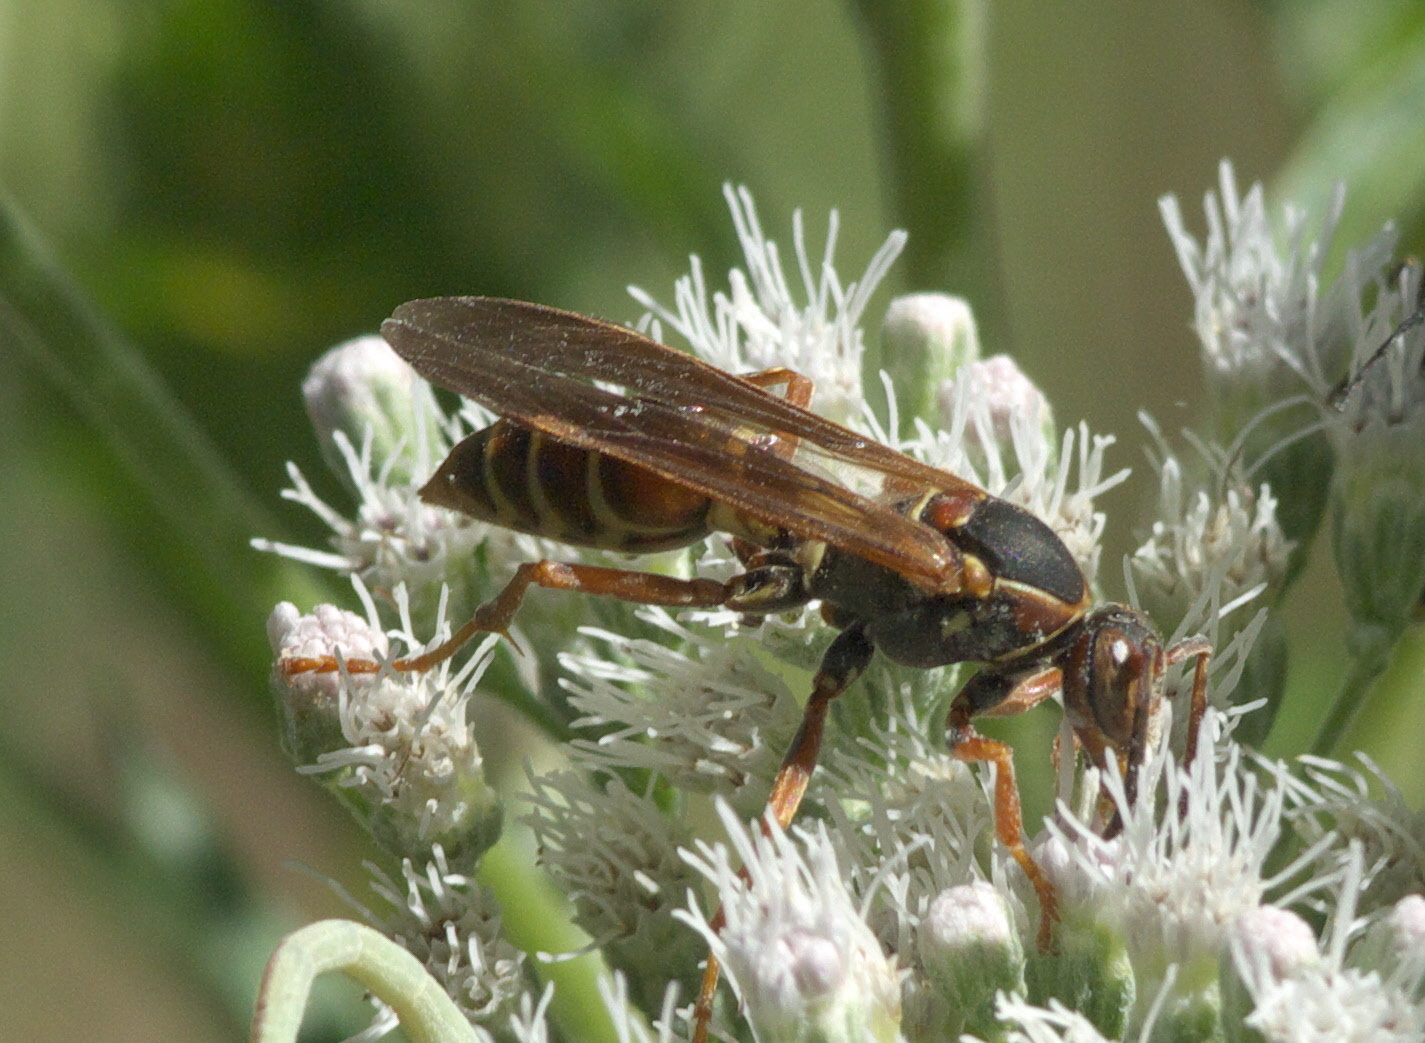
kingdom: Animalia
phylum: Arthropoda
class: Insecta
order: Hymenoptera
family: Eumenidae
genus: Polistes
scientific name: Polistes fuscatus
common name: Dark paper wasp
